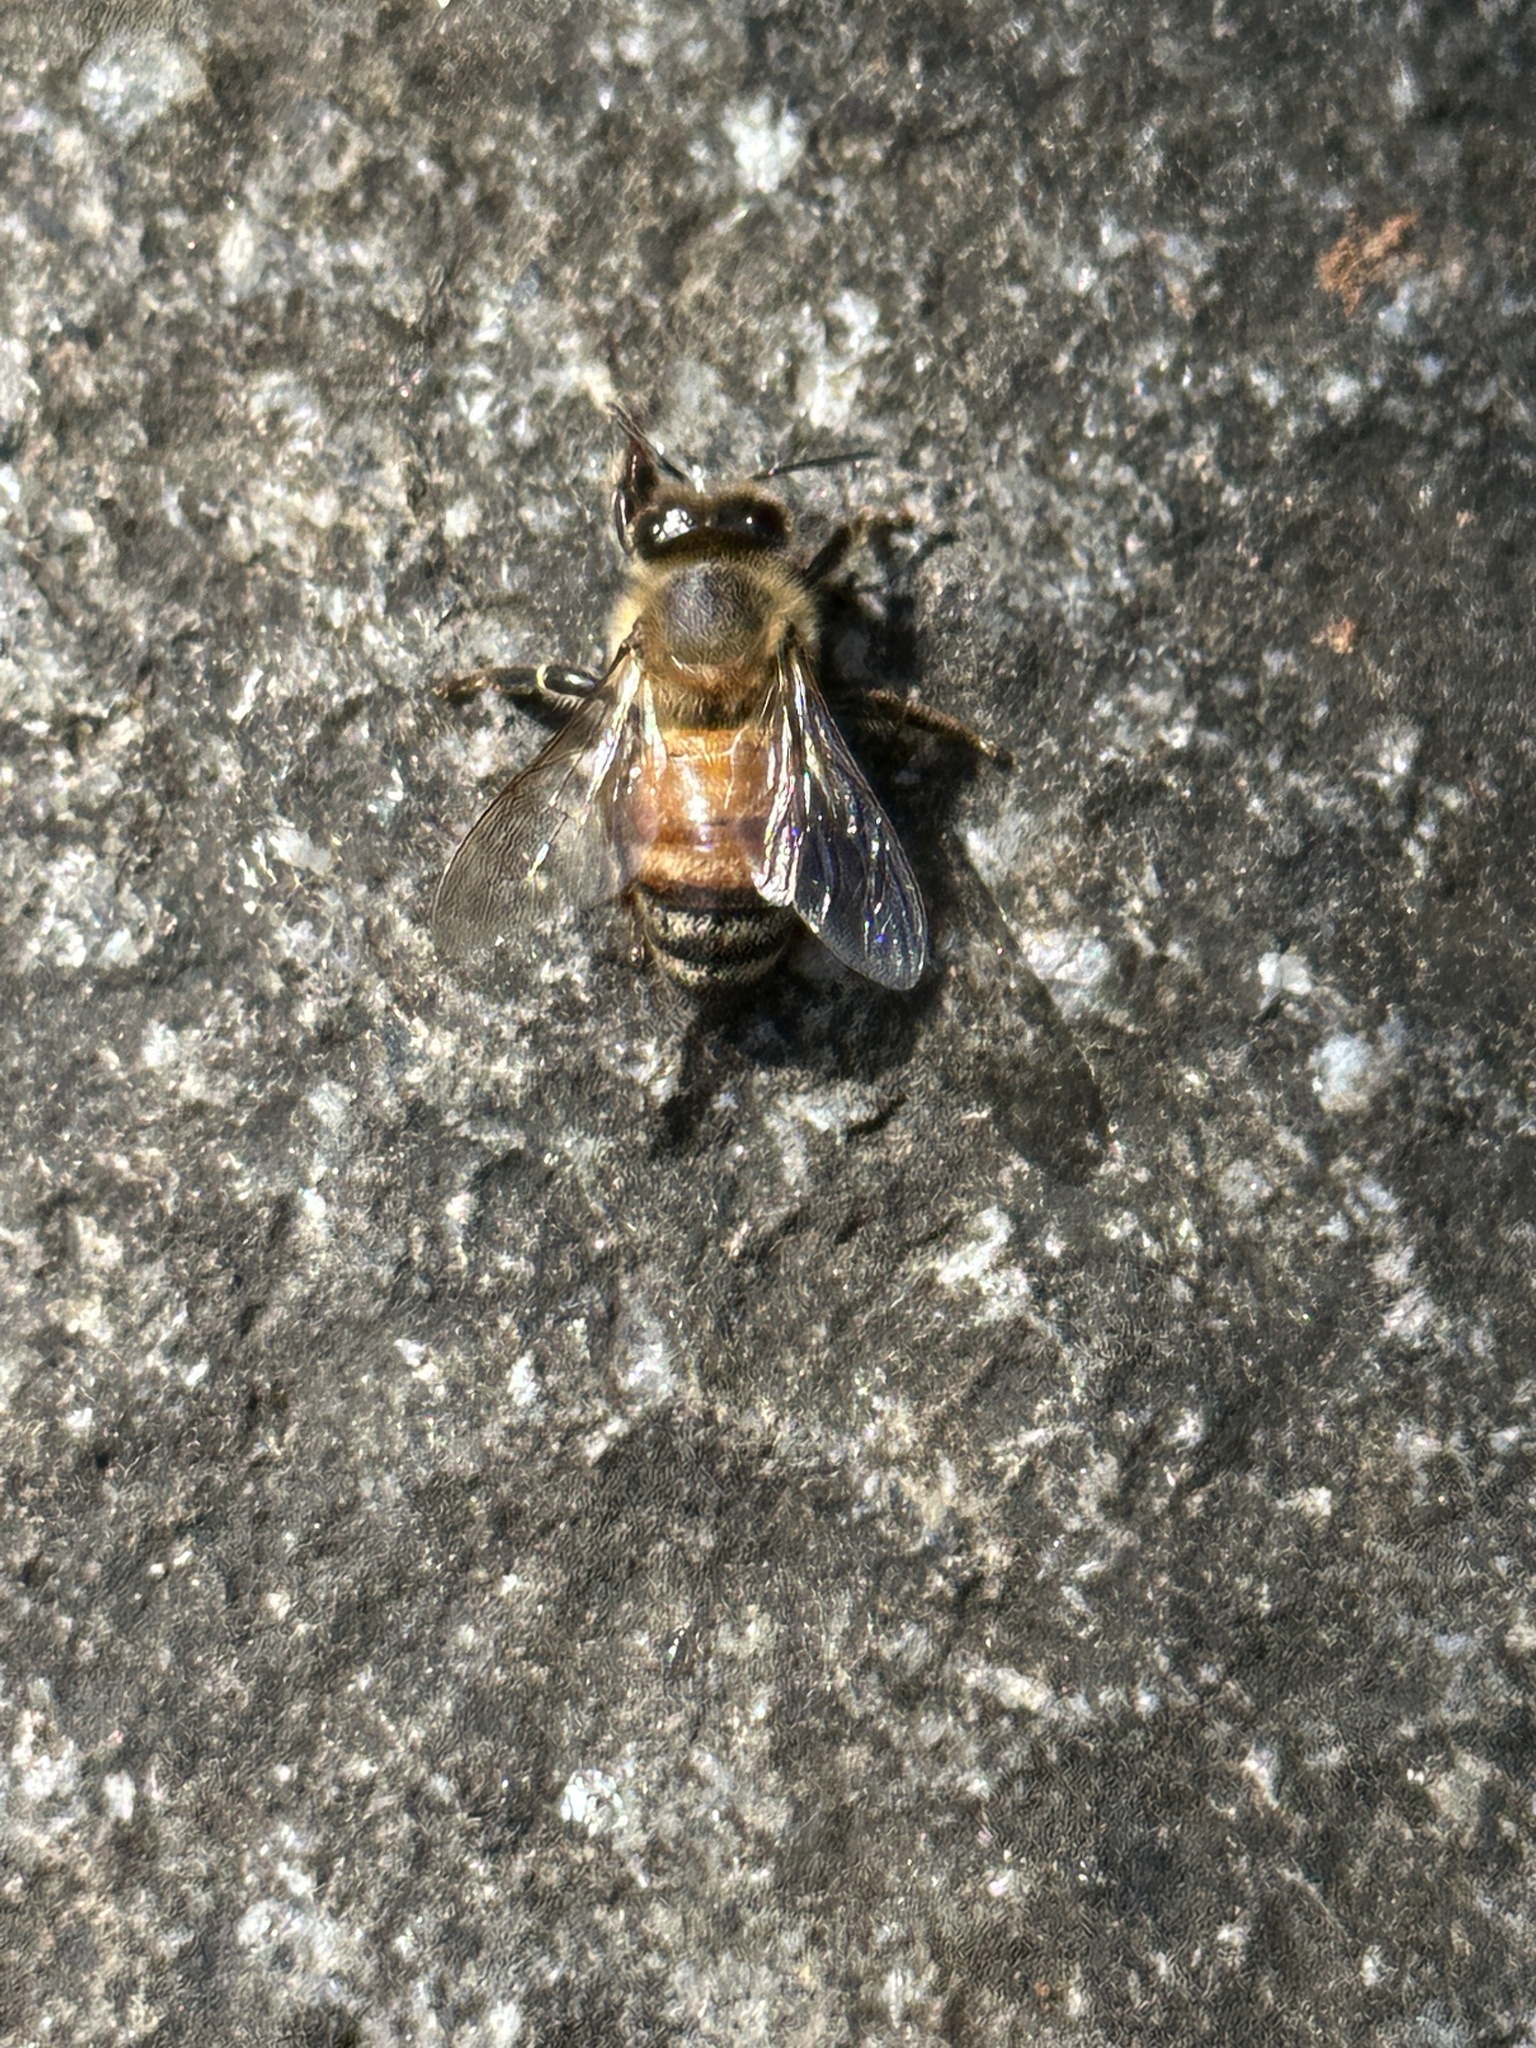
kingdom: Animalia
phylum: Arthropoda
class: Insecta
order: Hymenoptera
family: Apidae
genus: Apis
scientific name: Apis mellifera
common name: Honey bee
